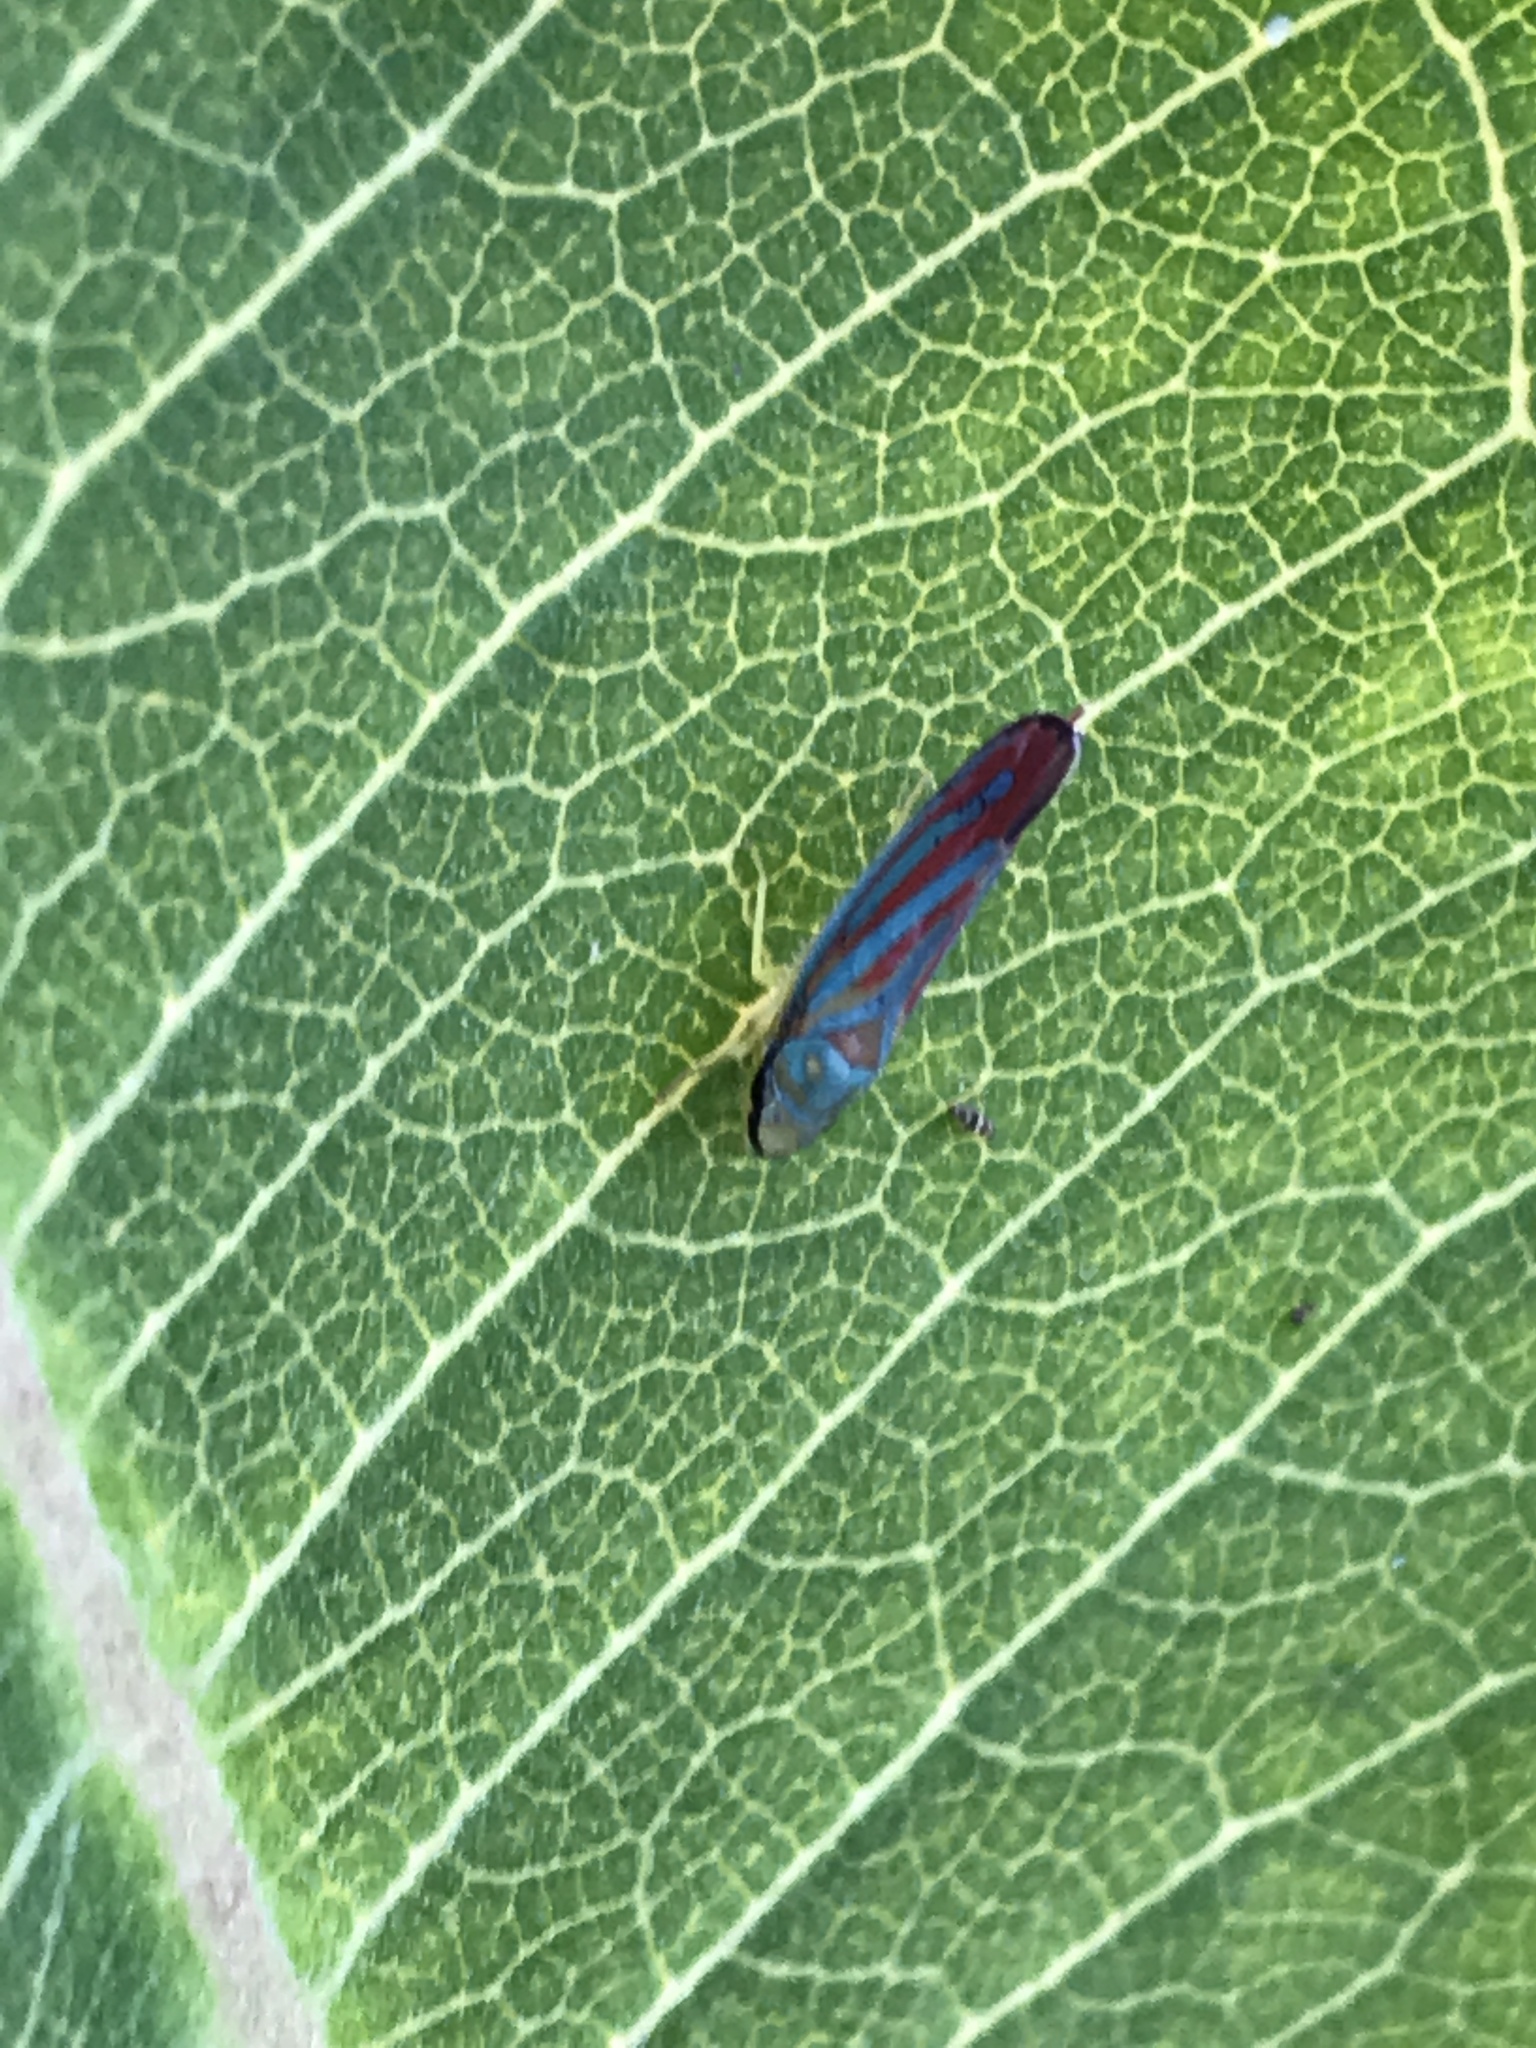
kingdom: Animalia
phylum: Arthropoda
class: Insecta
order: Hemiptera
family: Cicadellidae
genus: Graphocephala
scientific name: Graphocephala coccinea
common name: Candy-striped leafhopper
